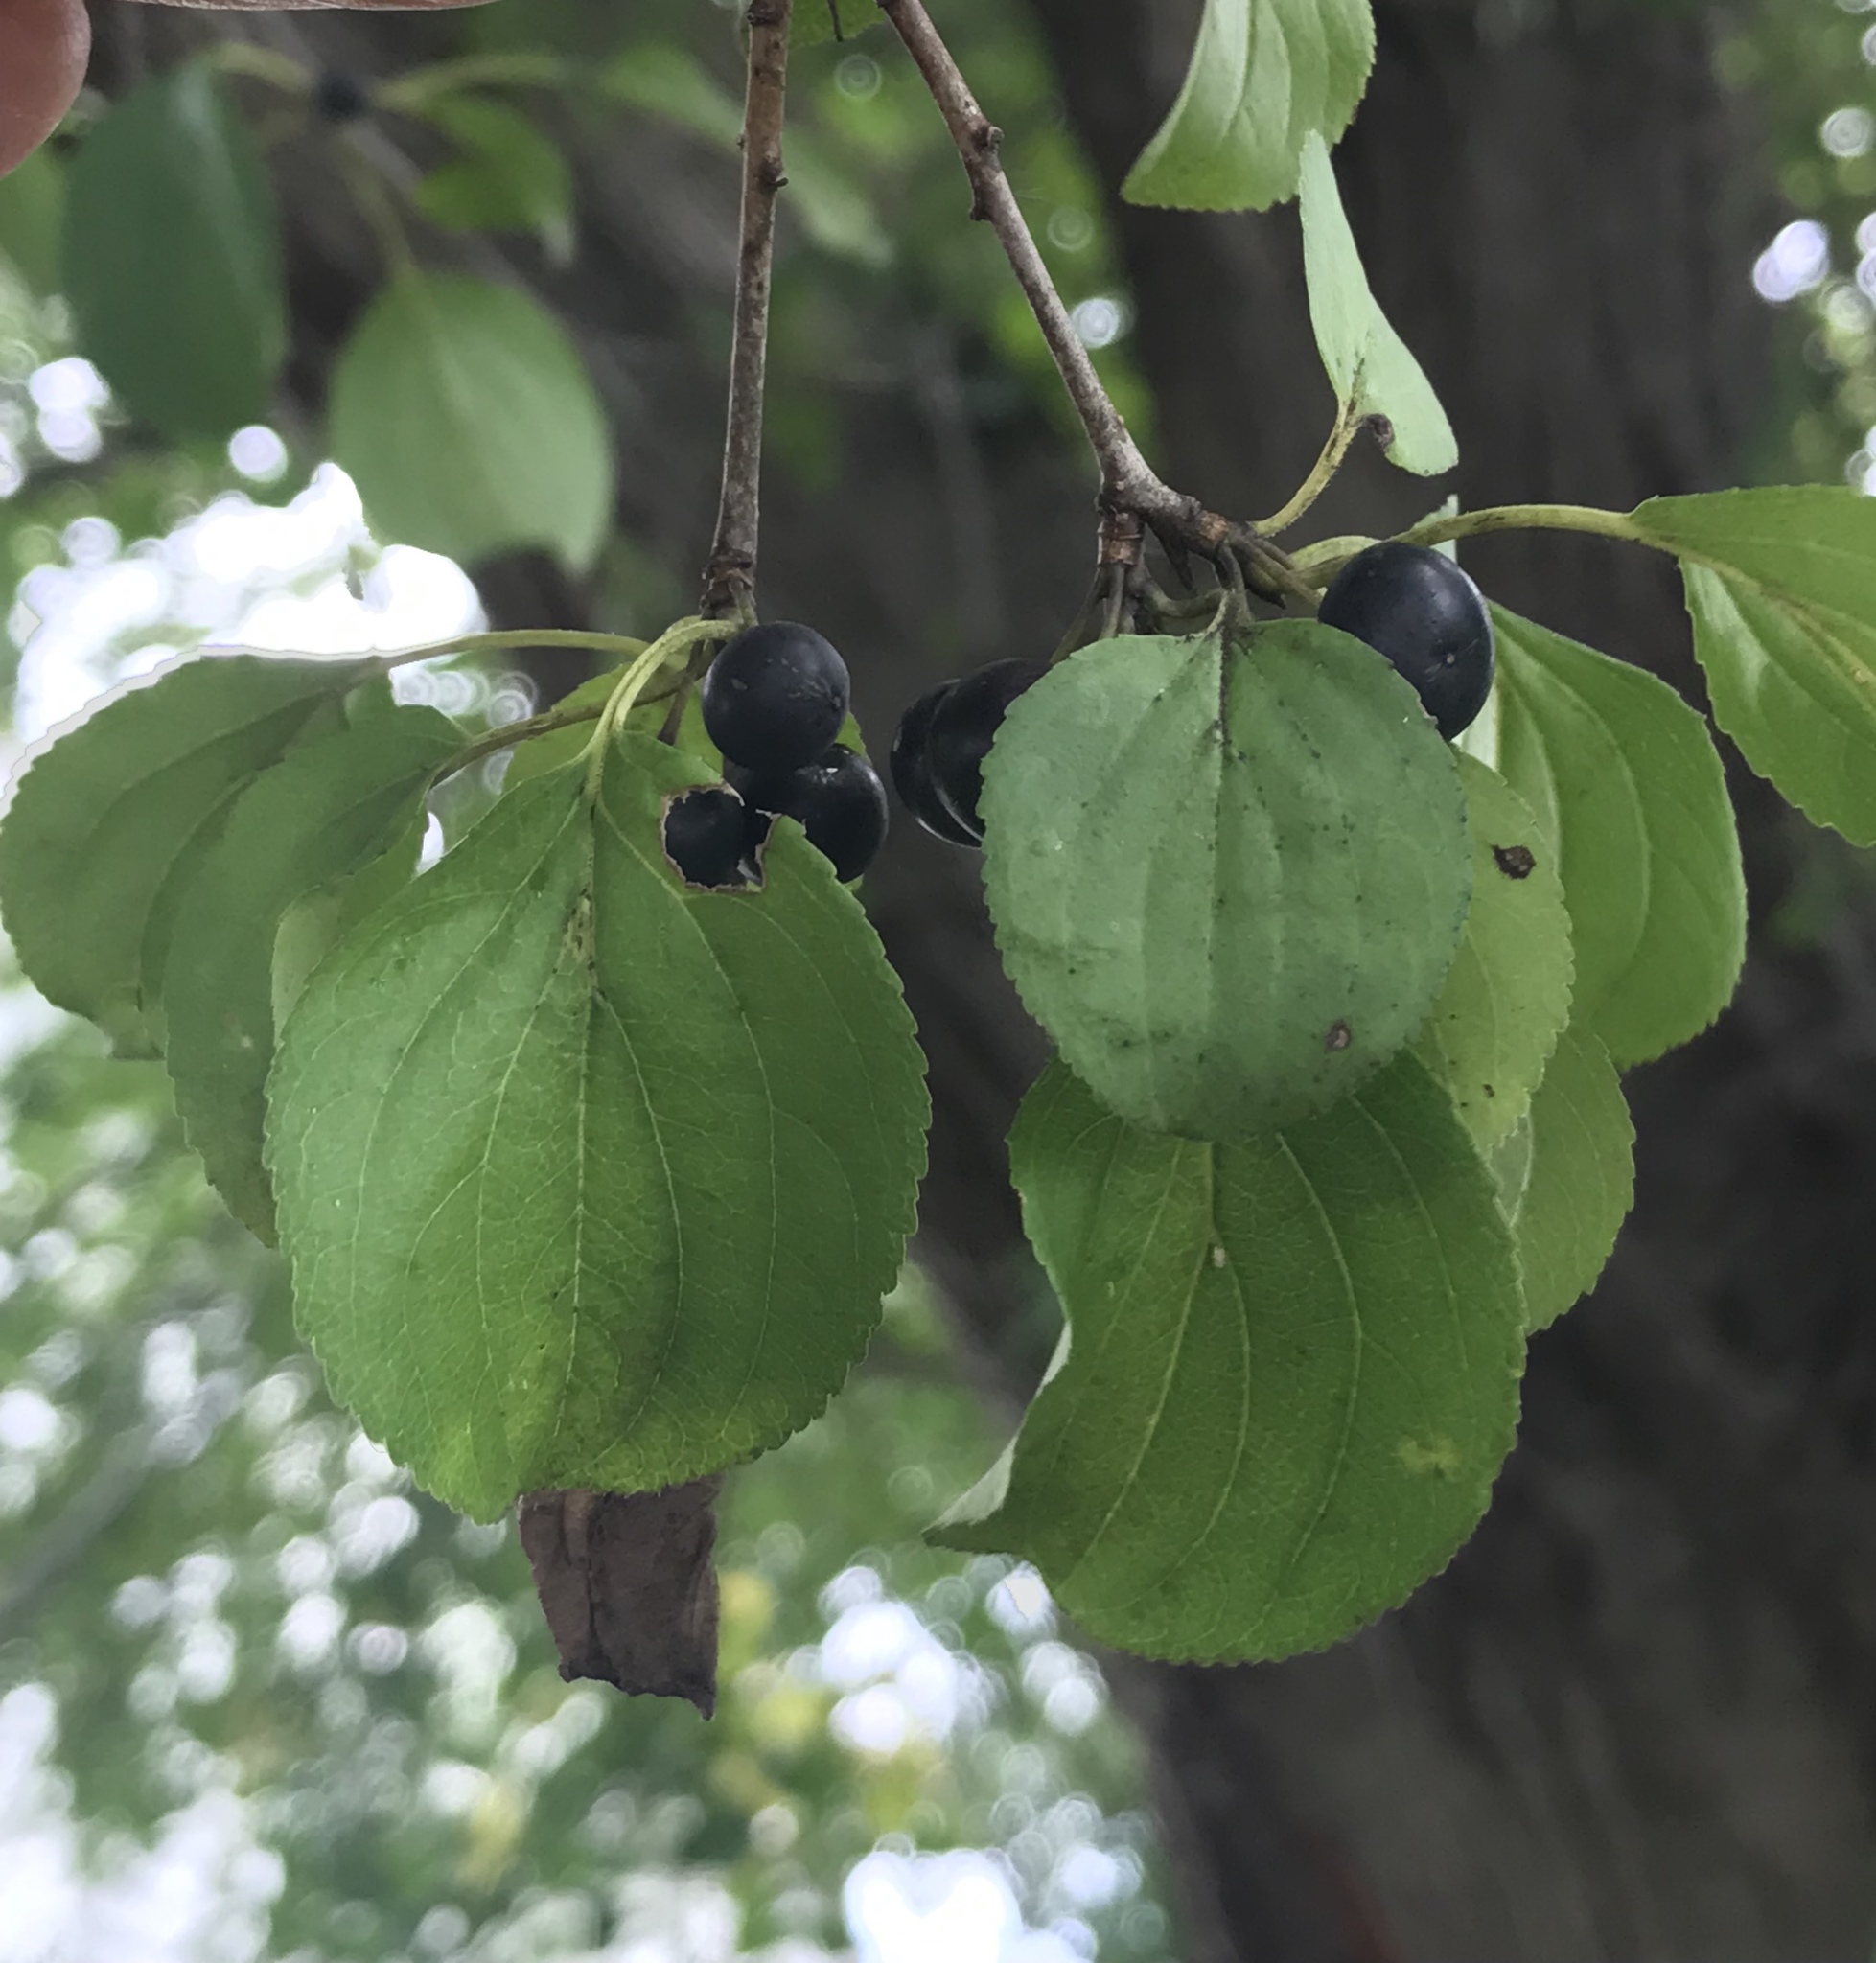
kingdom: Plantae
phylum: Tracheophyta
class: Magnoliopsida
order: Rosales
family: Rhamnaceae
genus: Rhamnus
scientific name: Rhamnus cathartica
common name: Common buckthorn
